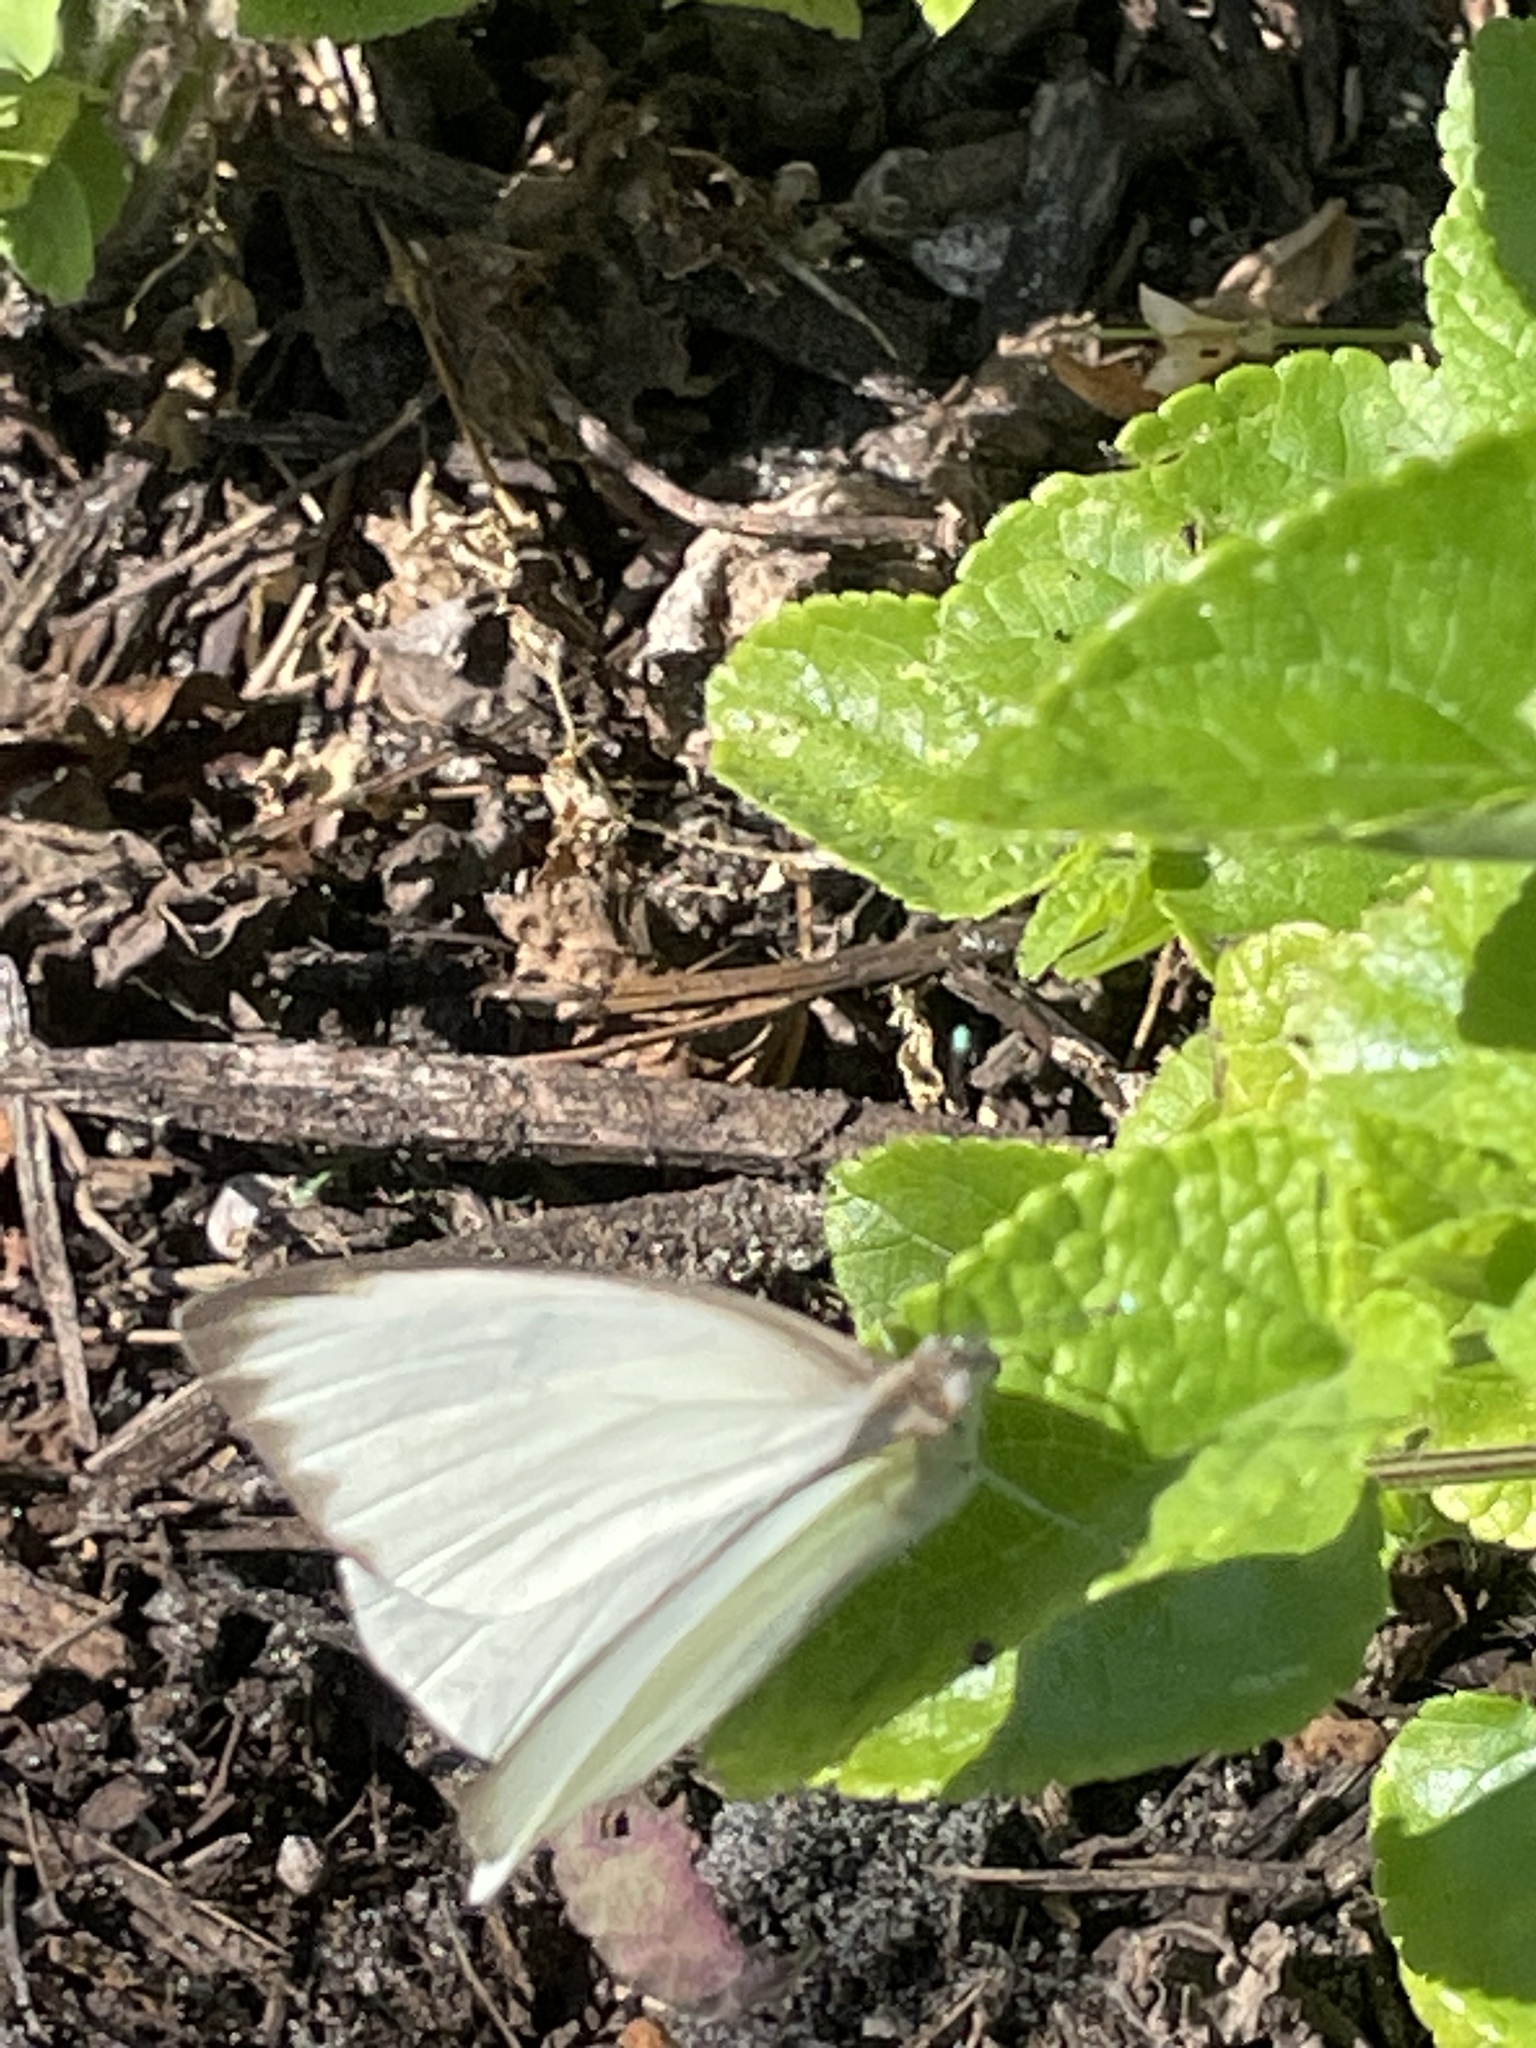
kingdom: Animalia
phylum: Arthropoda
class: Insecta
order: Lepidoptera
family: Pieridae
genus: Ascia
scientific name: Ascia monuste
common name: Great southern white
